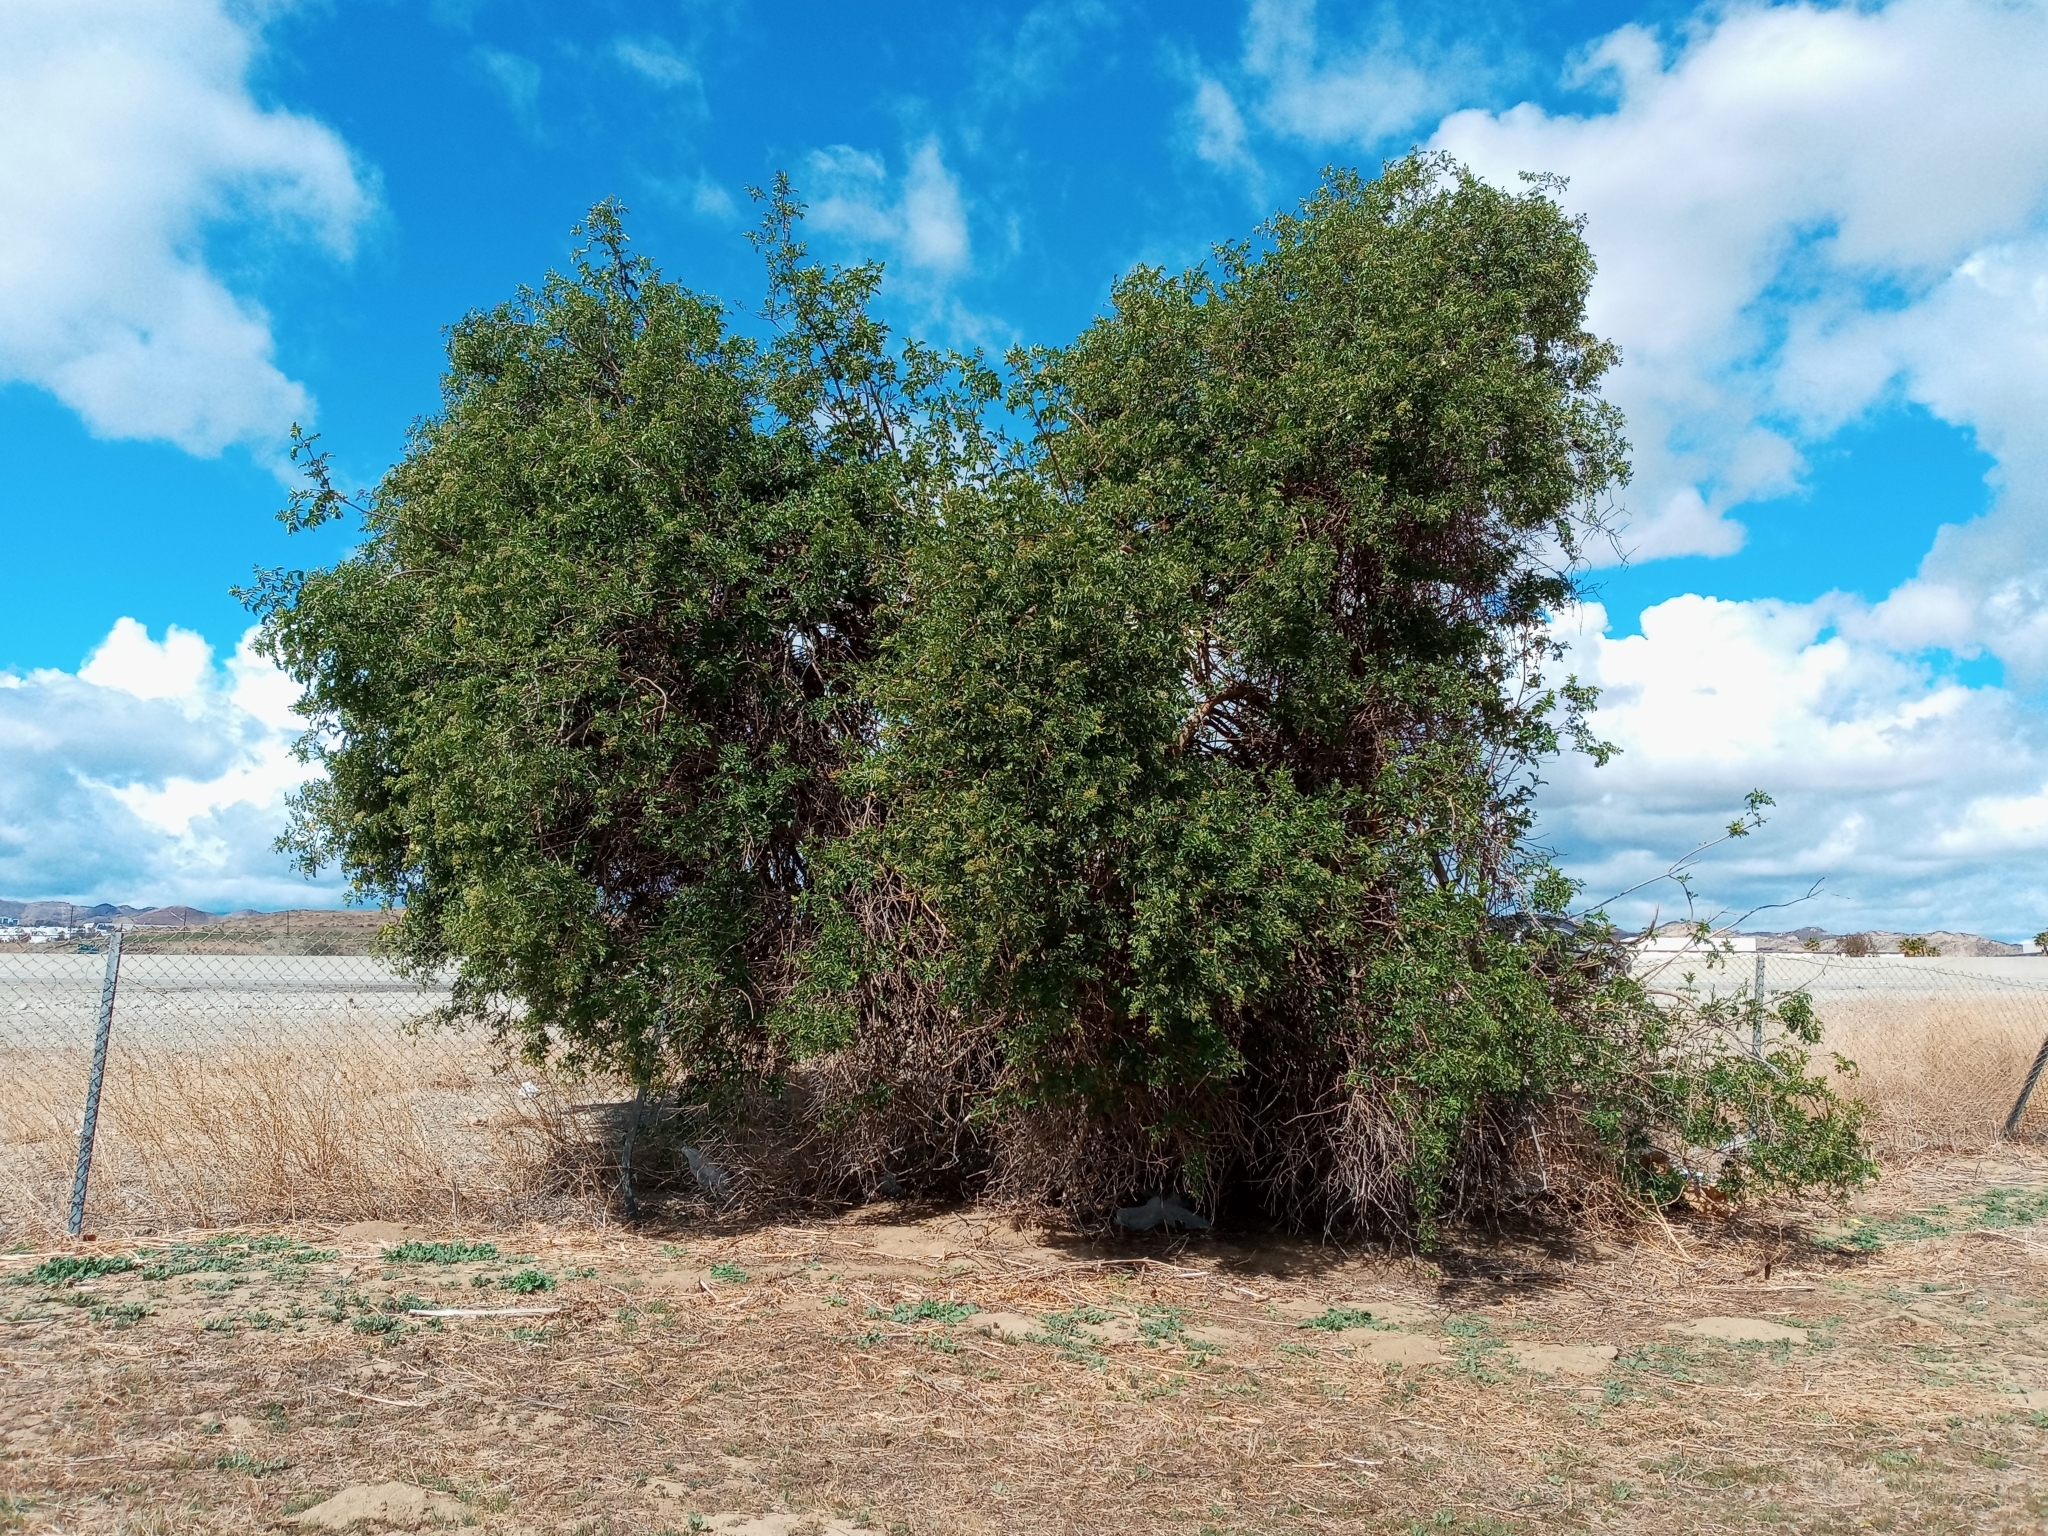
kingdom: Plantae
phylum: Tracheophyta
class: Magnoliopsida
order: Dipsacales
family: Viburnaceae
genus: Sambucus
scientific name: Sambucus cerulea
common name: Blue elder
